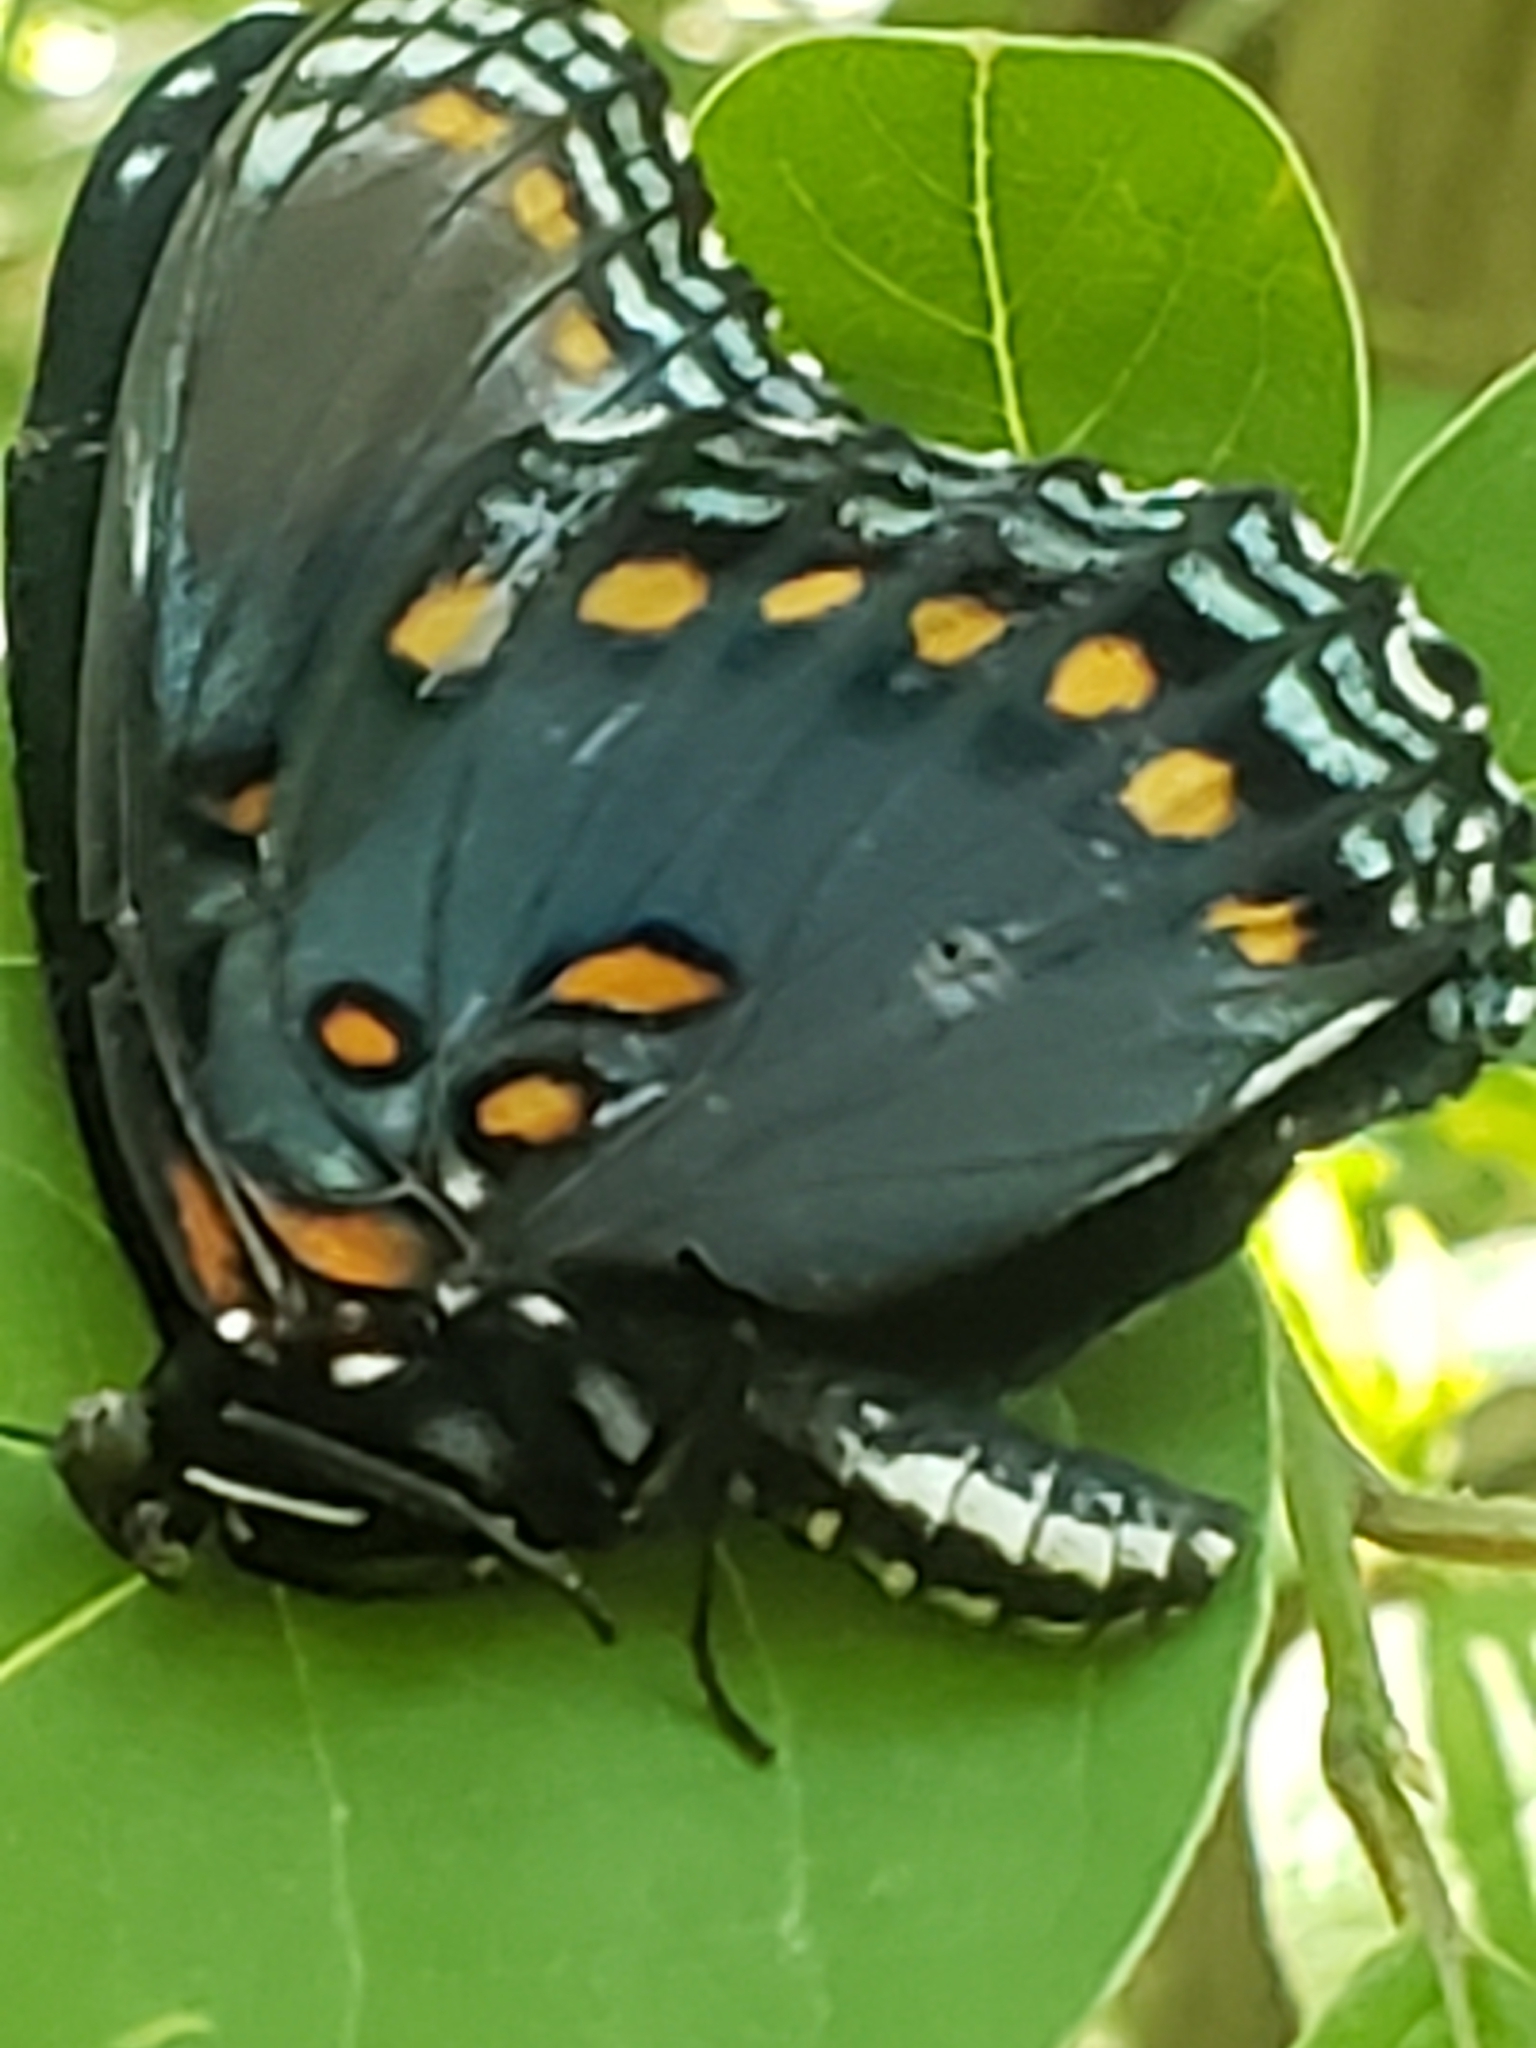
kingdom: Animalia
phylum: Arthropoda
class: Insecta
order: Lepidoptera
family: Nymphalidae
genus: Limenitis
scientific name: Limenitis astyanax
